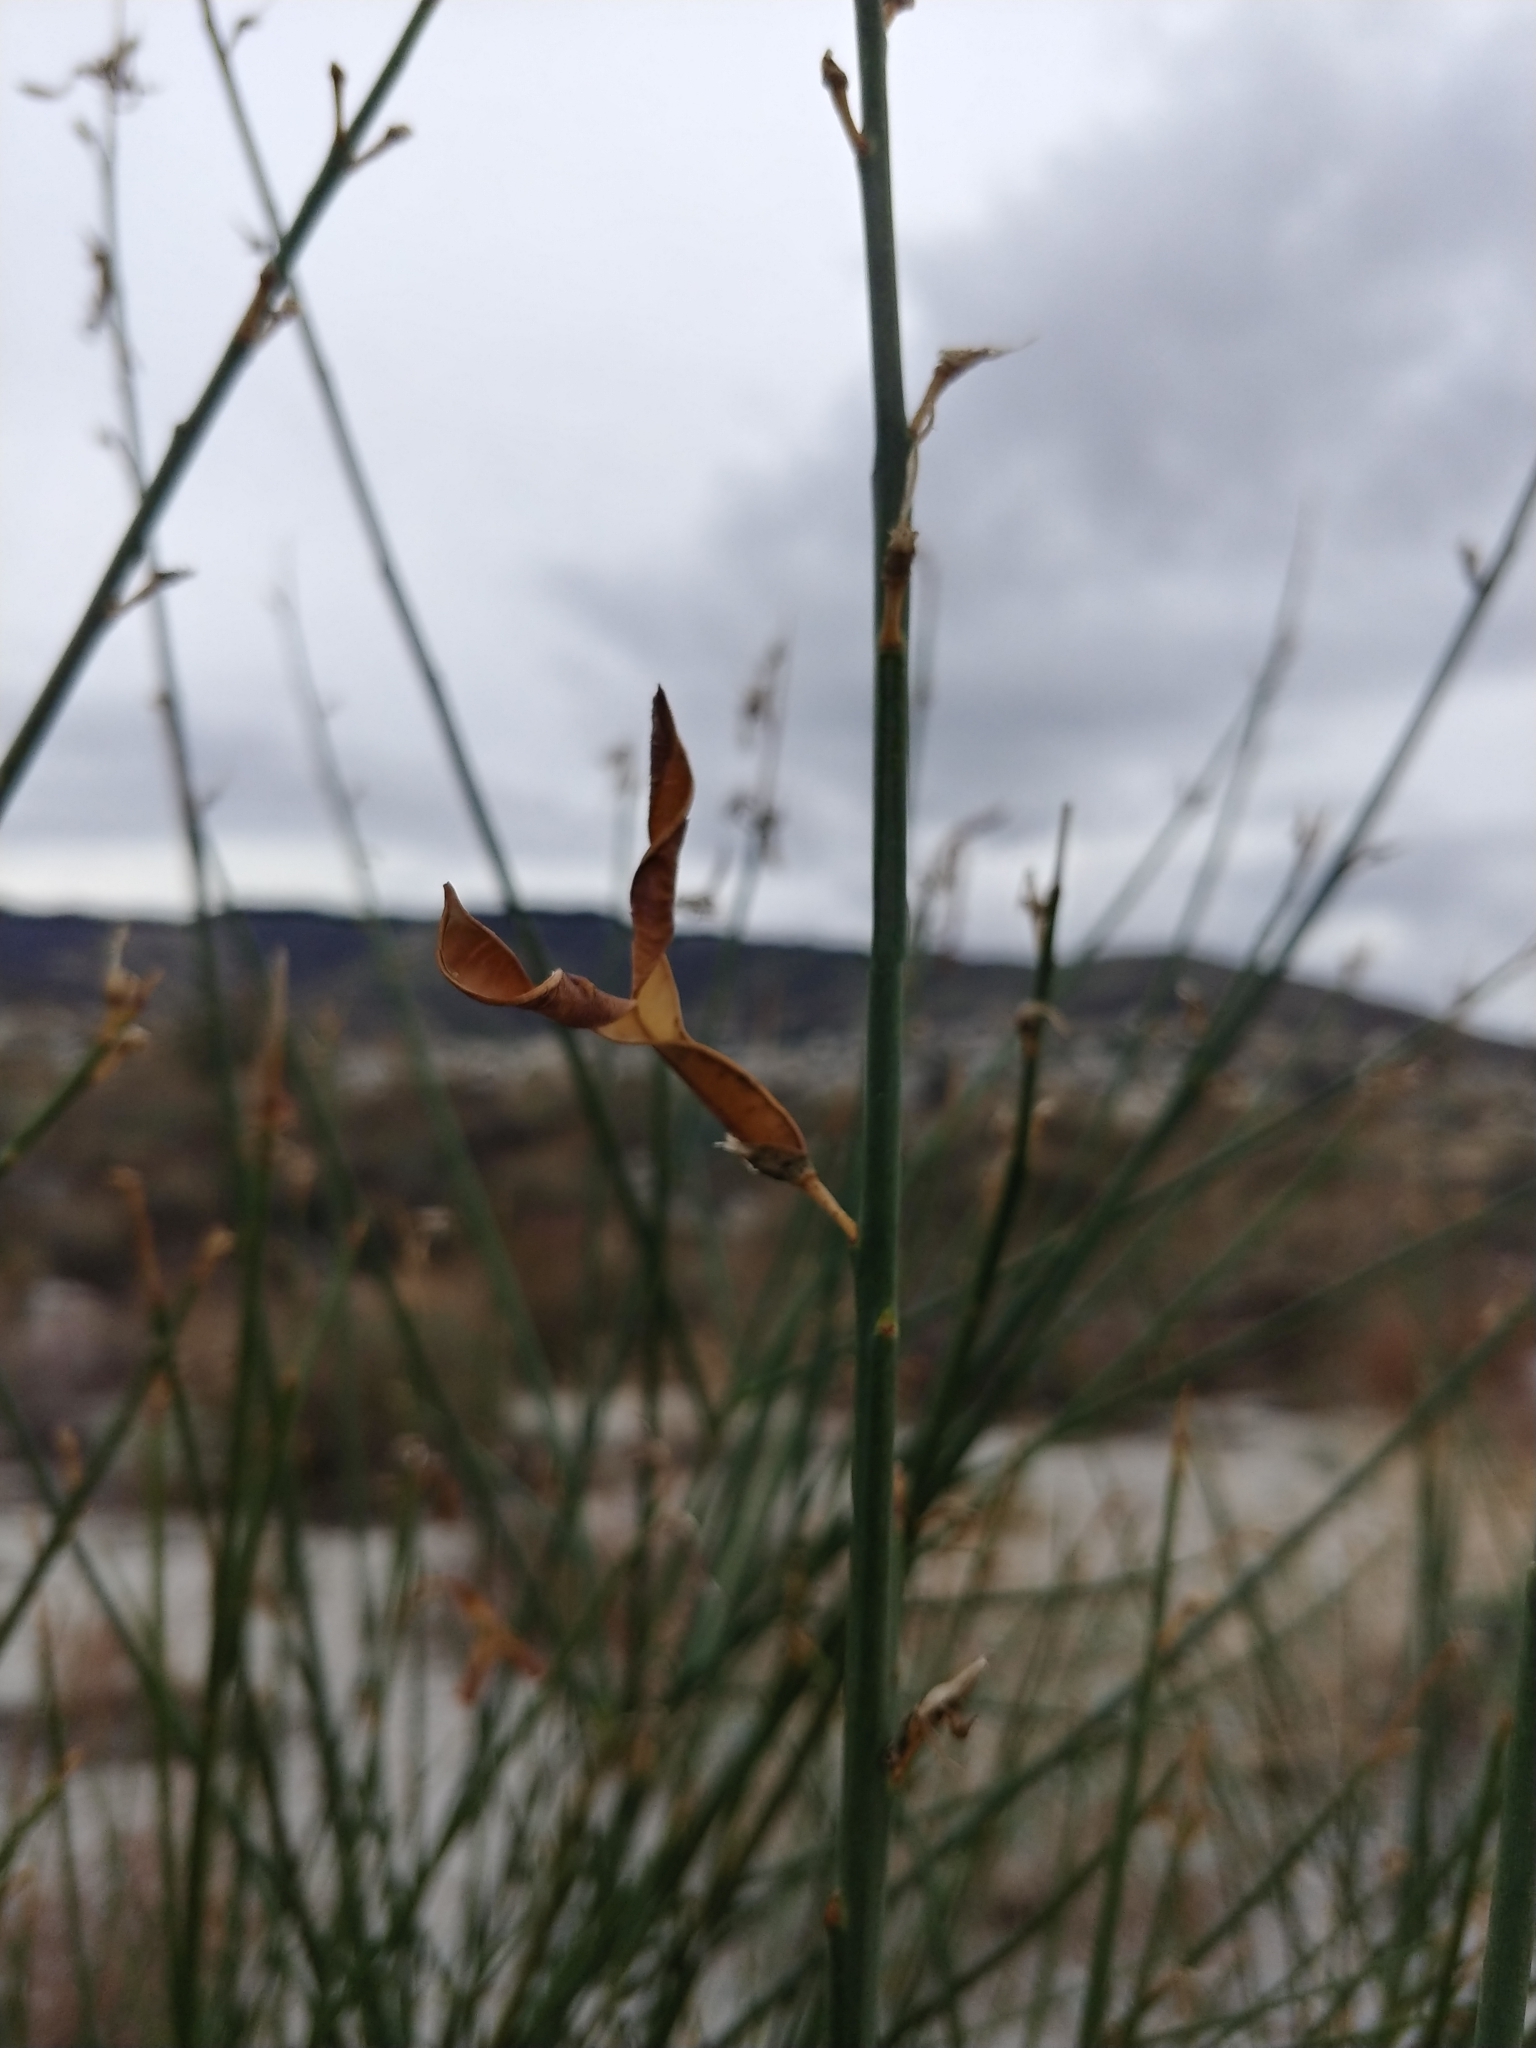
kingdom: Plantae
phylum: Tracheophyta
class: Magnoliopsida
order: Fabales
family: Fabaceae
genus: Spartium
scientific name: Spartium junceum
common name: Spanish broom
